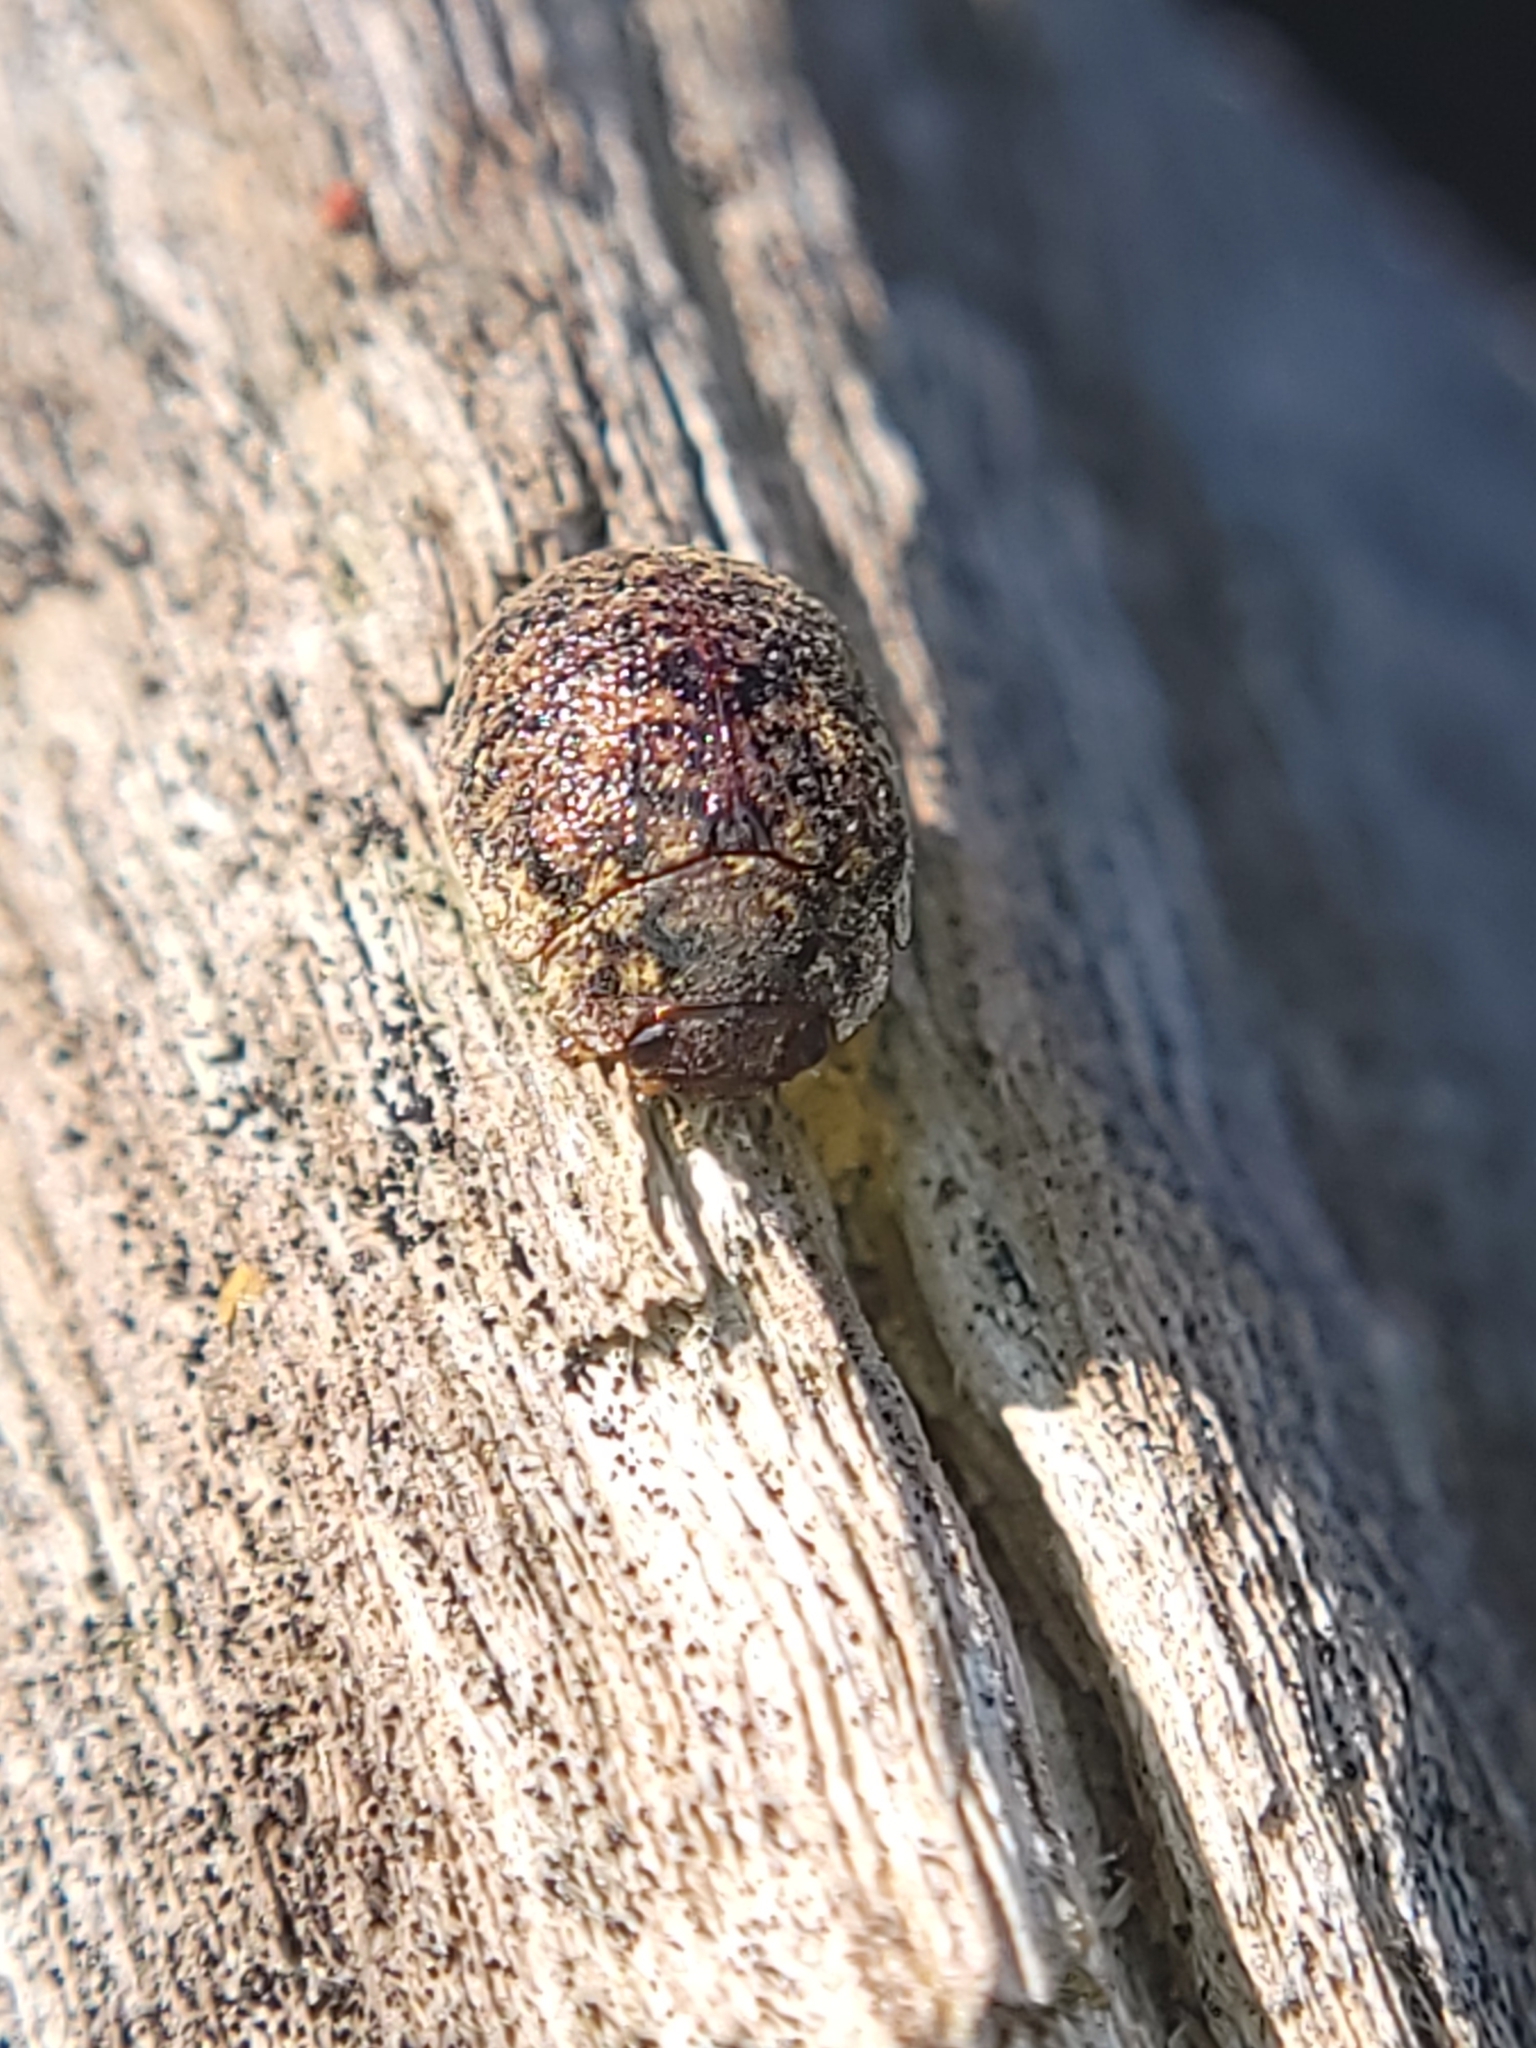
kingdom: Animalia
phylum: Arthropoda
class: Insecta
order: Coleoptera
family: Chrysomelidae
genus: Trachymela
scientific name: Trachymela sloanei
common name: Australian tortoise beetle
